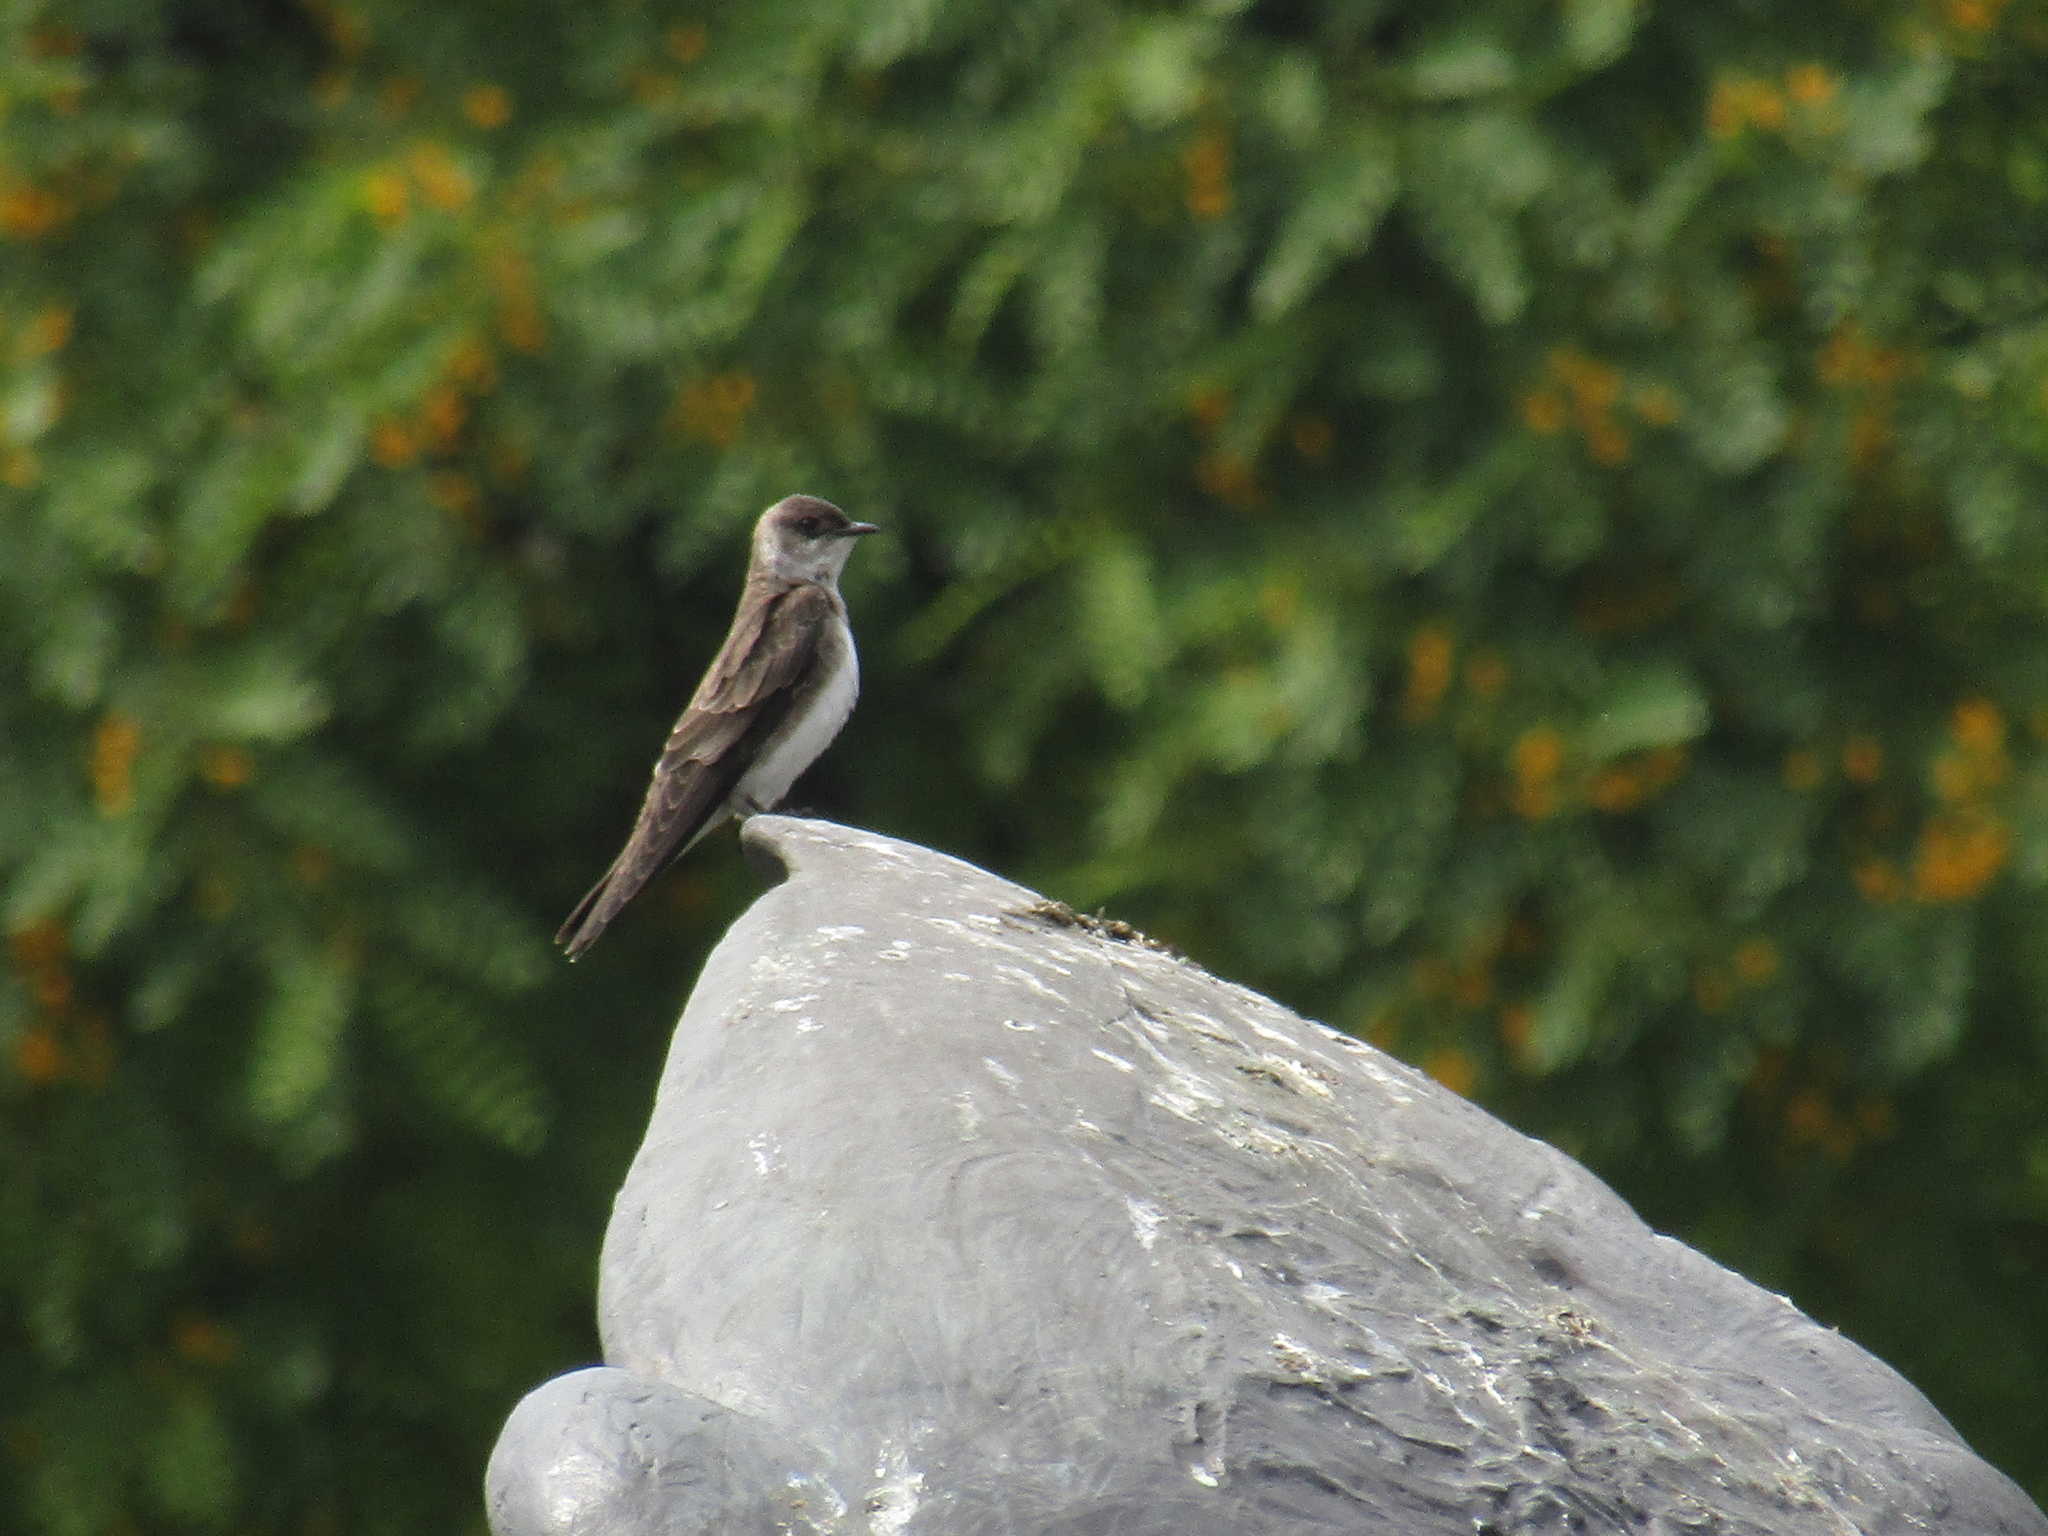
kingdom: Animalia
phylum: Chordata
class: Aves
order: Passeriformes
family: Hirundinidae
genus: Progne
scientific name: Progne tapera
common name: Brown-chested martin
